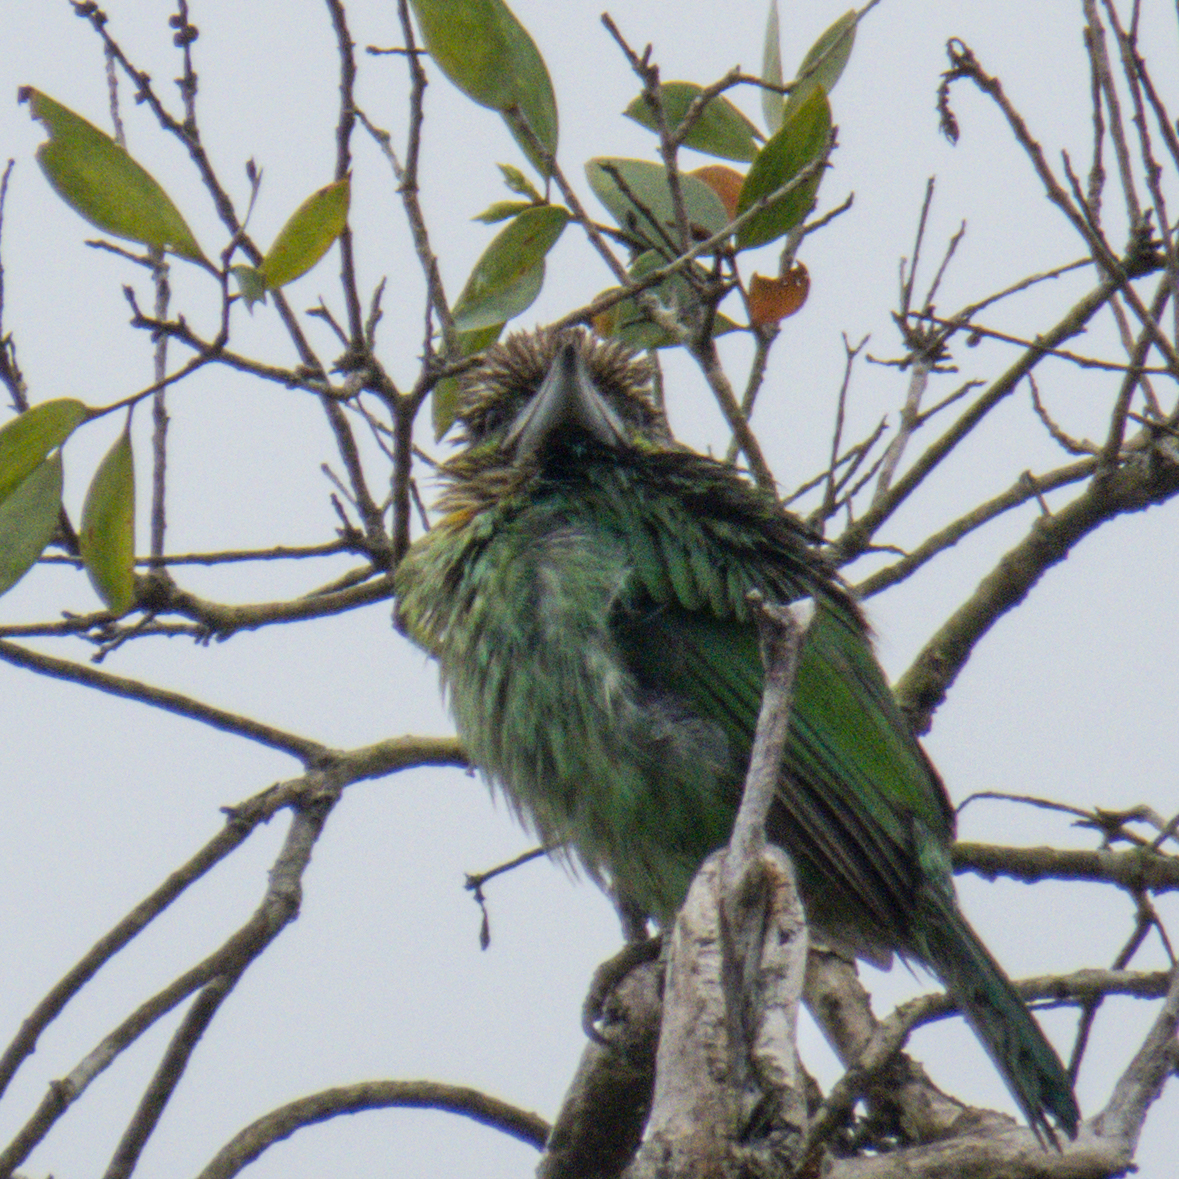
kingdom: Animalia
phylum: Chordata
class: Aves
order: Piciformes
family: Megalaimidae
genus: Psilopogon
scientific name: Psilopogon faiostrictus
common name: Green-eared barbet
